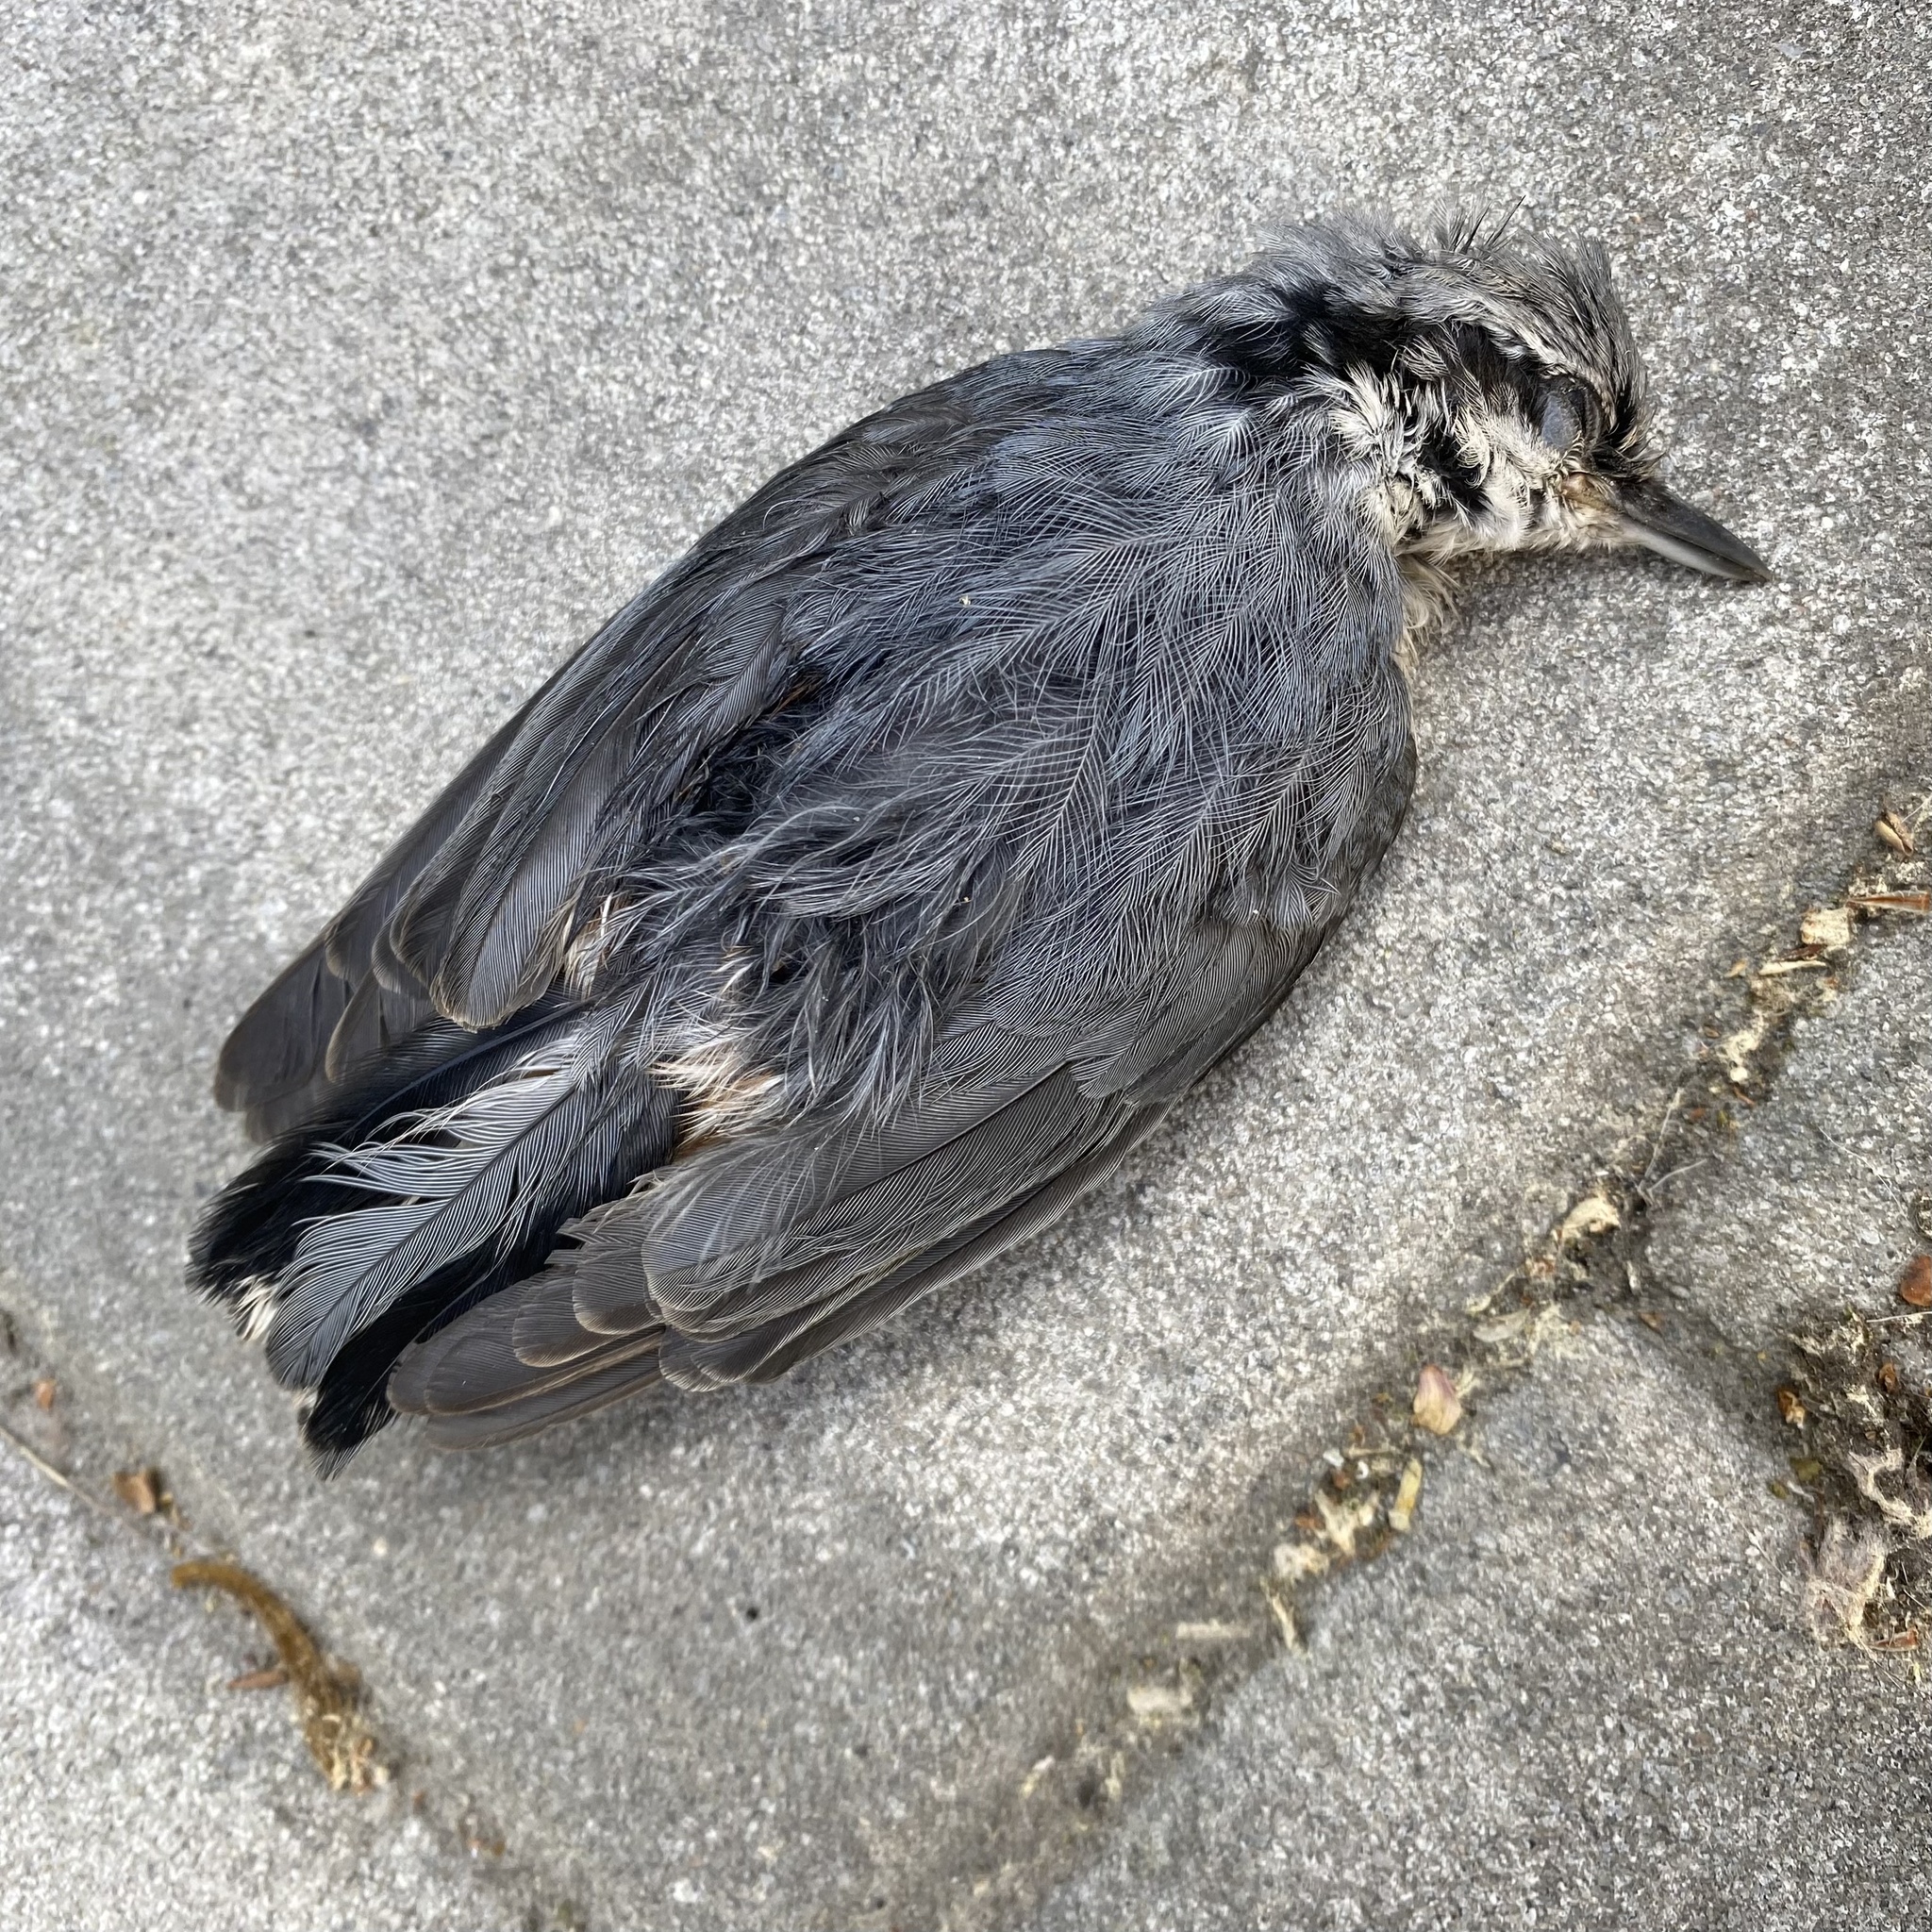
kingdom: Animalia
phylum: Chordata
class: Aves
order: Passeriformes
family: Sittidae
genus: Sitta
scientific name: Sitta europaea
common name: Eurasian nuthatch
